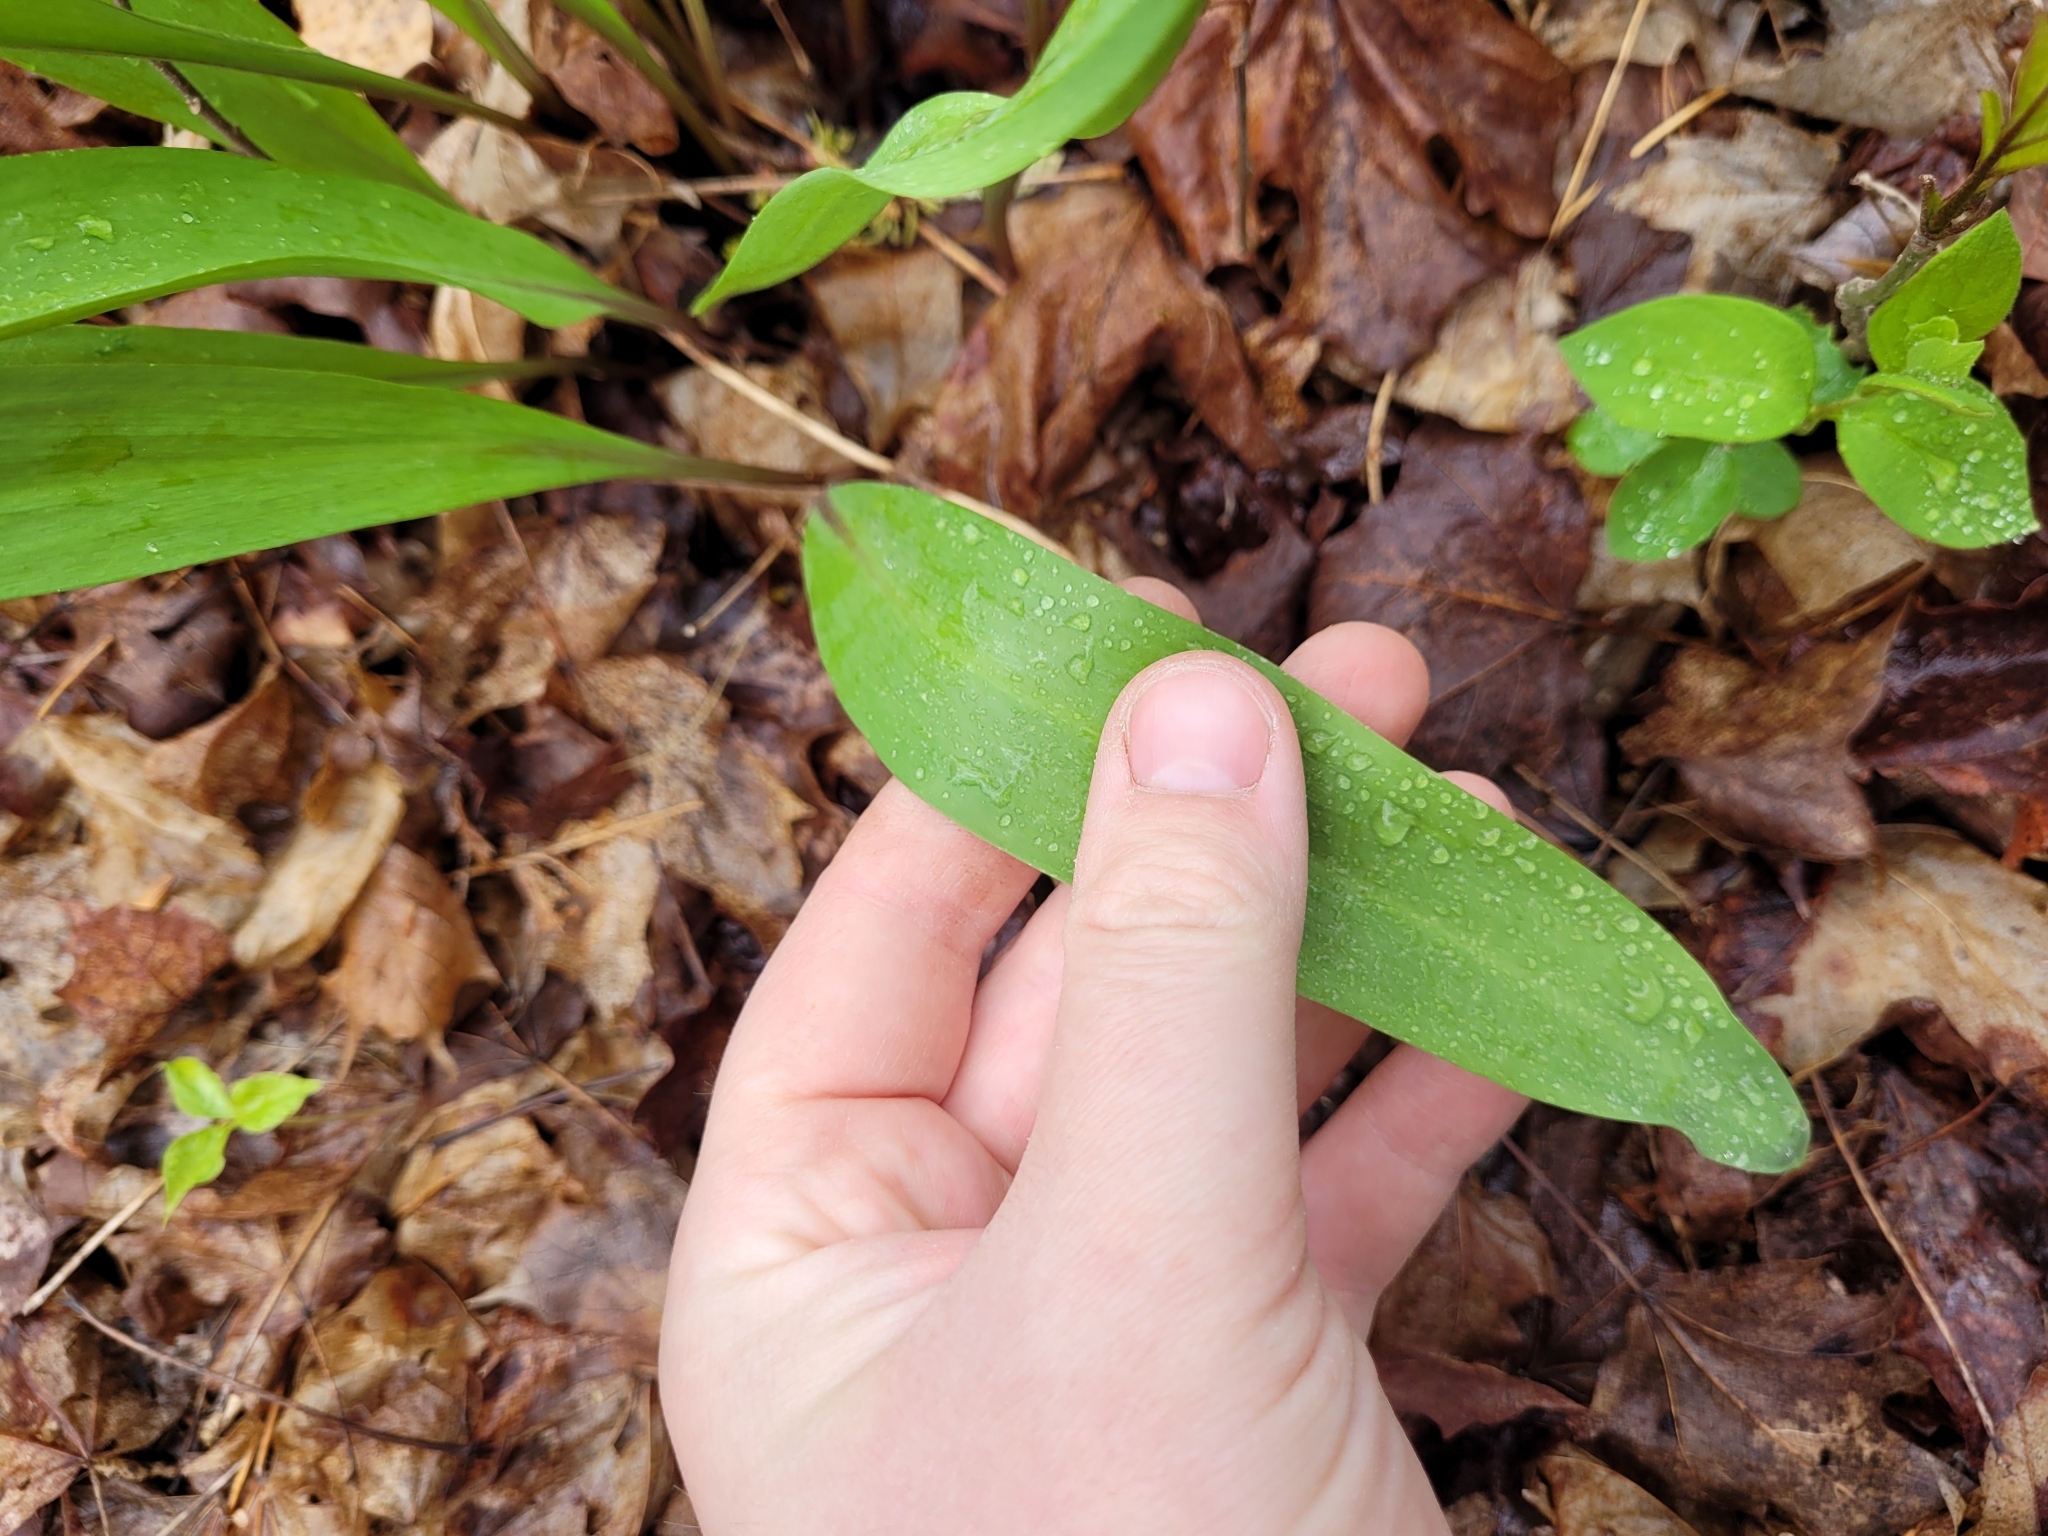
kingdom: Plantae
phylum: Tracheophyta
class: Liliopsida
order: Asparagales
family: Amaryllidaceae
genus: Allium
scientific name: Allium tricoccum
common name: Ramp
